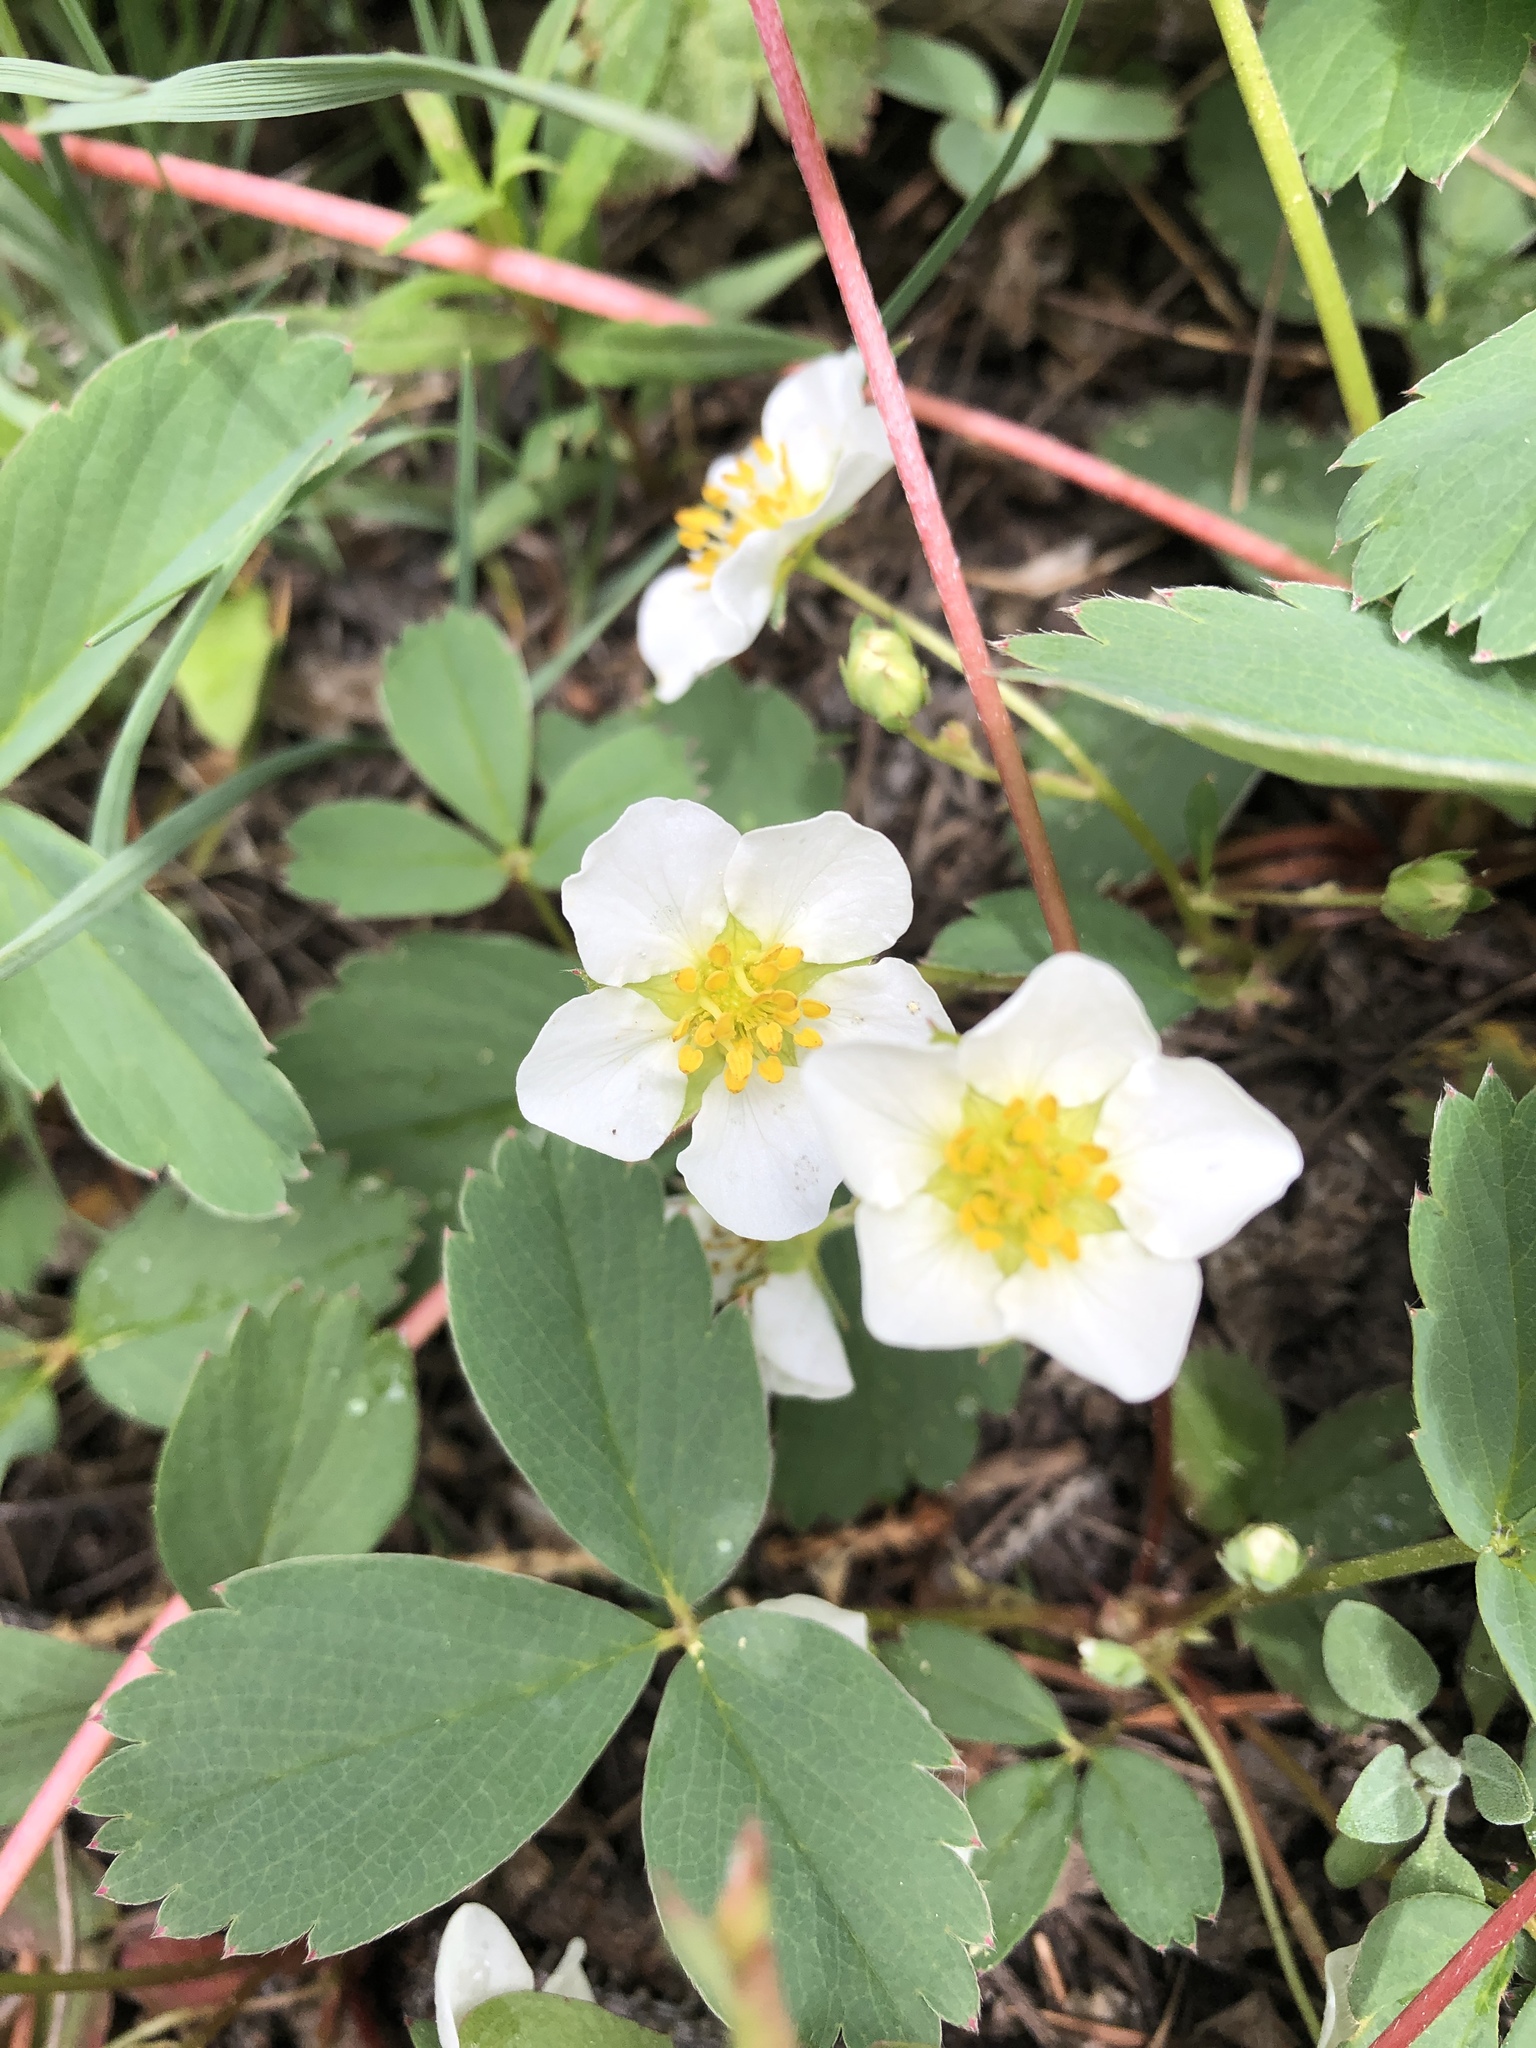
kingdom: Plantae
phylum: Tracheophyta
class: Magnoliopsida
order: Rosales
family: Rosaceae
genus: Fragaria
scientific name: Fragaria virginiana
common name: Thickleaved wild strawberry
